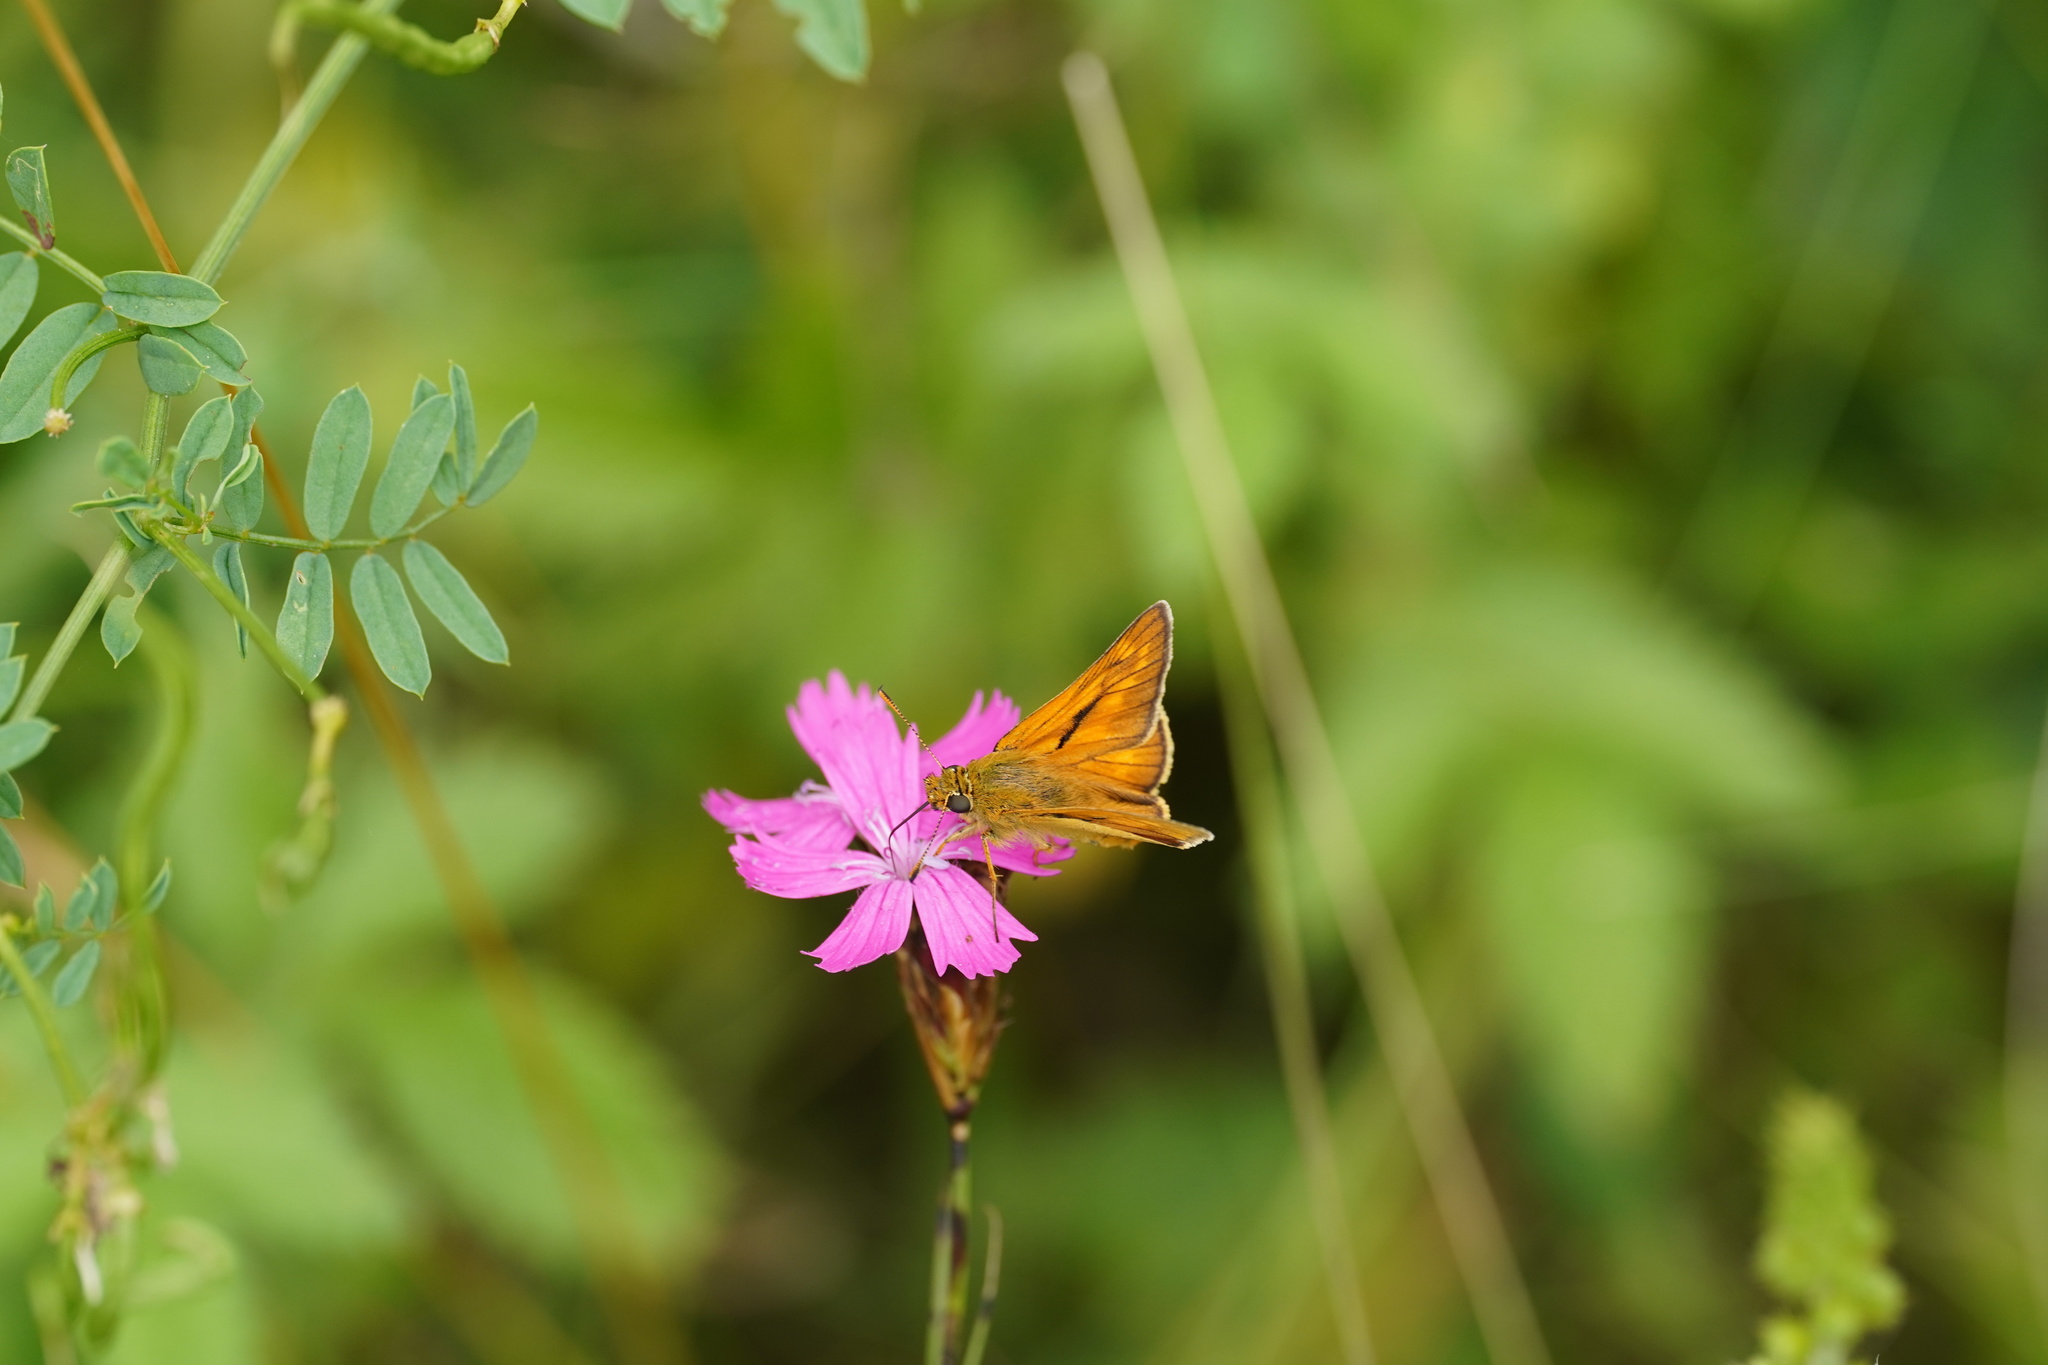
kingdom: Animalia
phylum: Arthropoda
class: Insecta
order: Lepidoptera
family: Hesperiidae
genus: Ochlodes
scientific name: Ochlodes venata
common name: Large skipper
